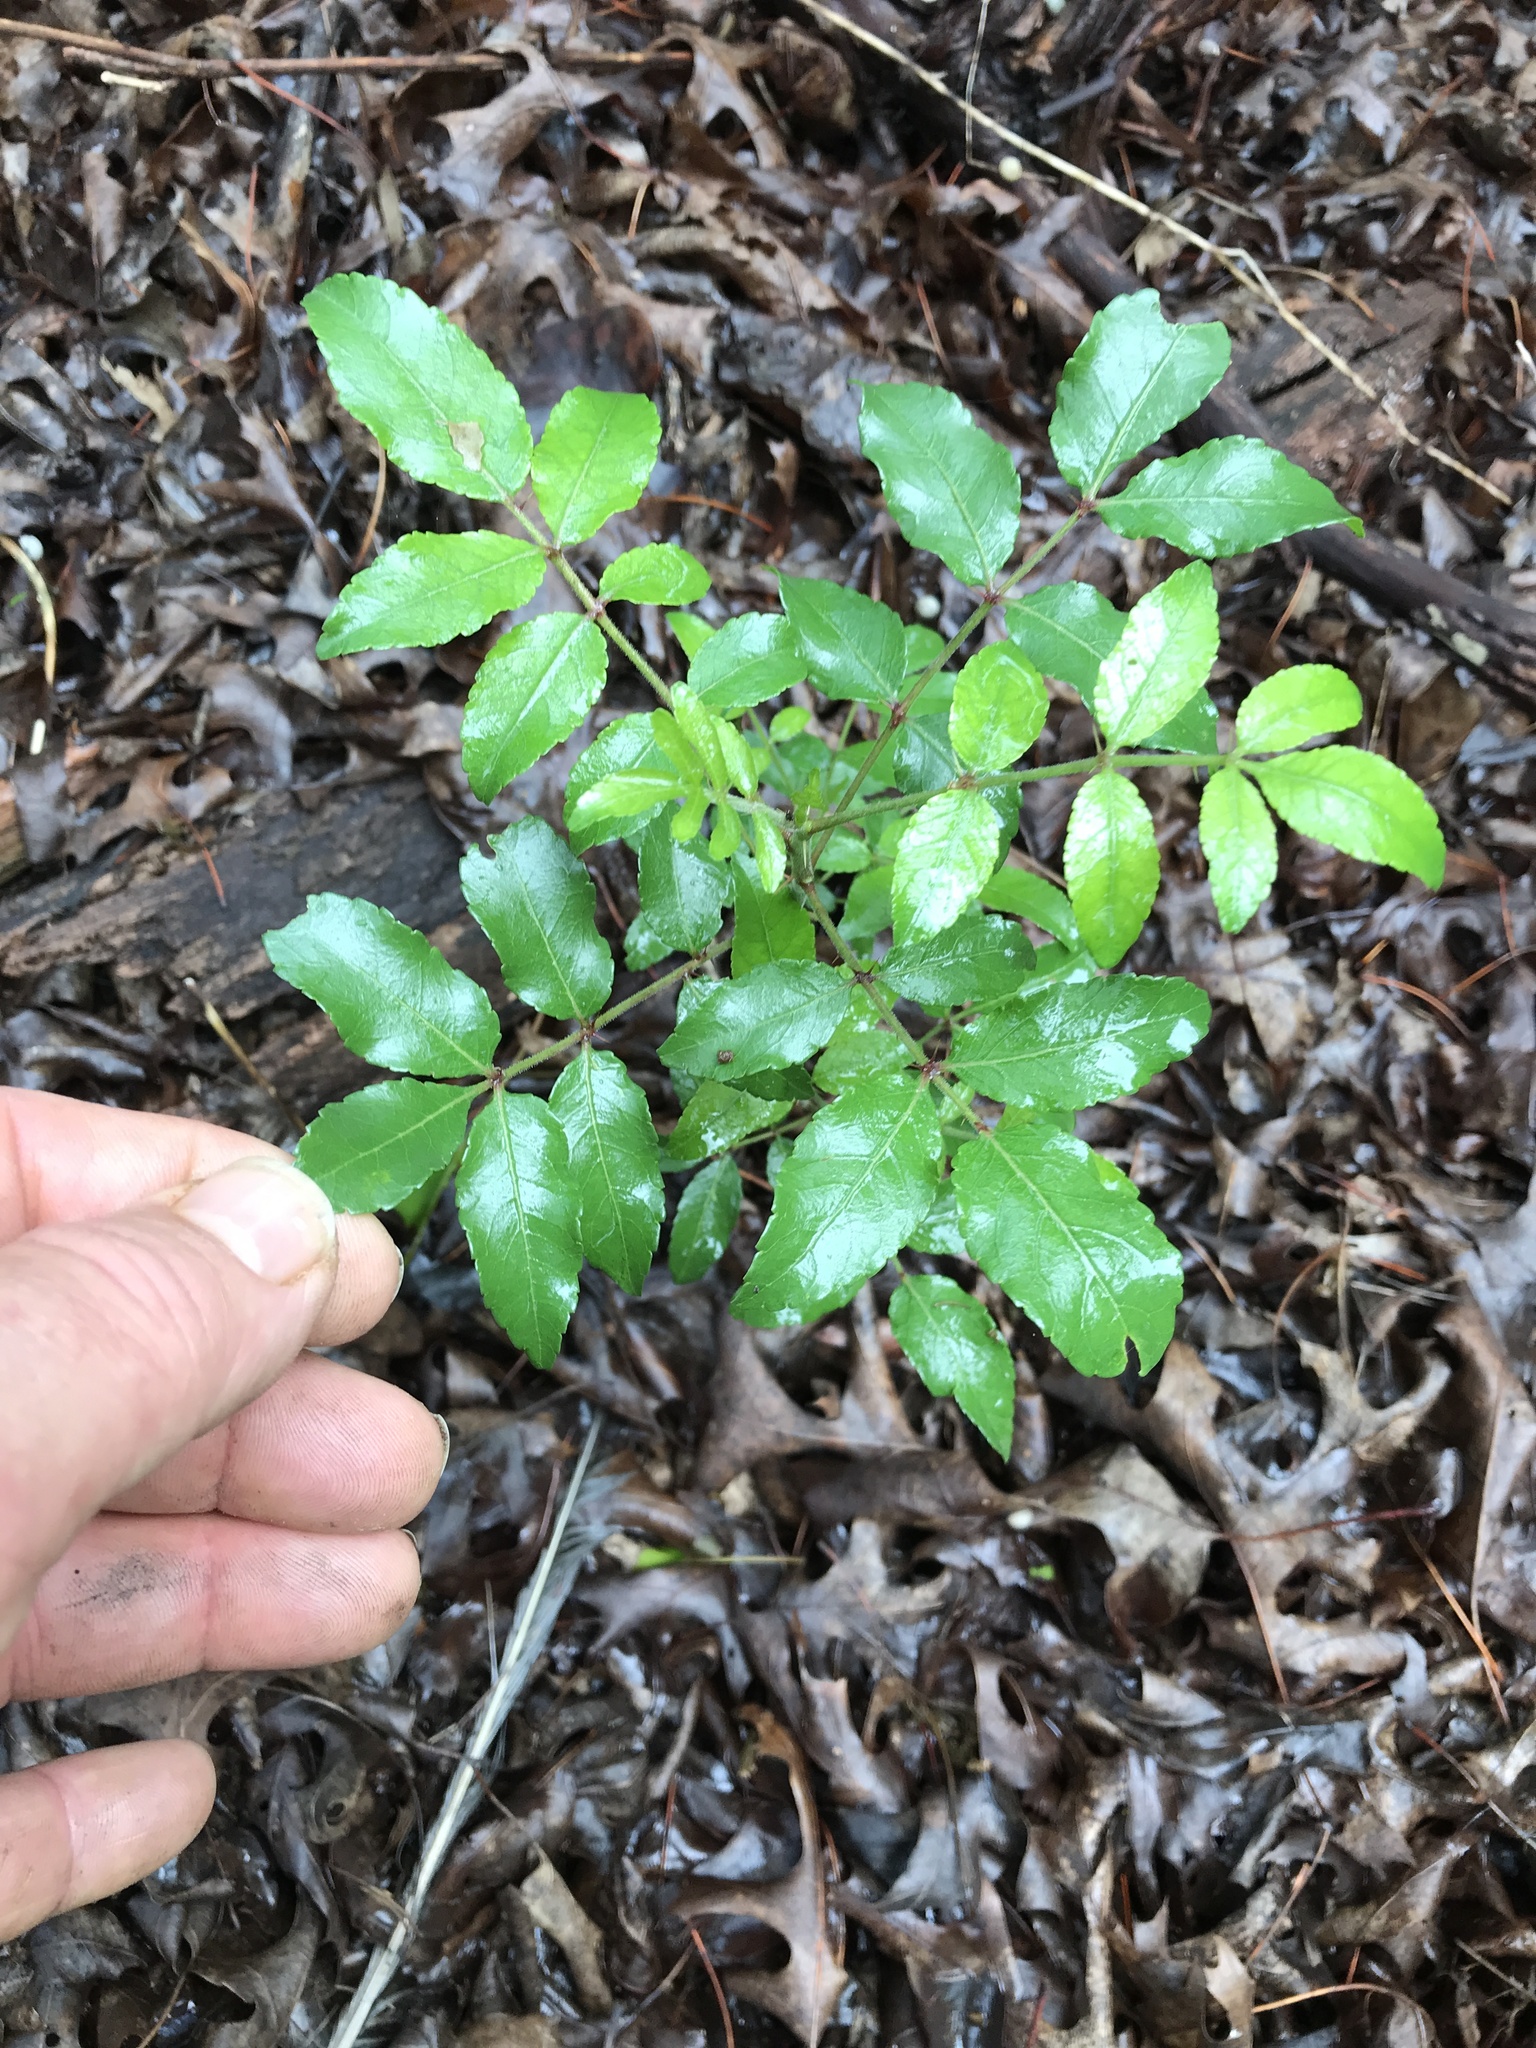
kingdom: Plantae
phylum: Tracheophyta
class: Magnoliopsida
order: Sapindales
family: Rutaceae
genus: Zanthoxylum
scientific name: Zanthoxylum clava-herculis
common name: Hercules'-club
